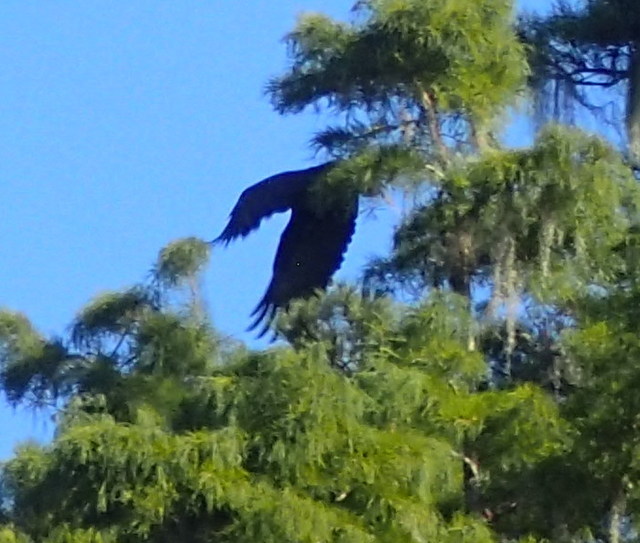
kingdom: Animalia
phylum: Chordata
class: Aves
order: Accipitriformes
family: Accipitridae
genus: Haliaeetus
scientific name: Haliaeetus leucocephalus
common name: Bald eagle
